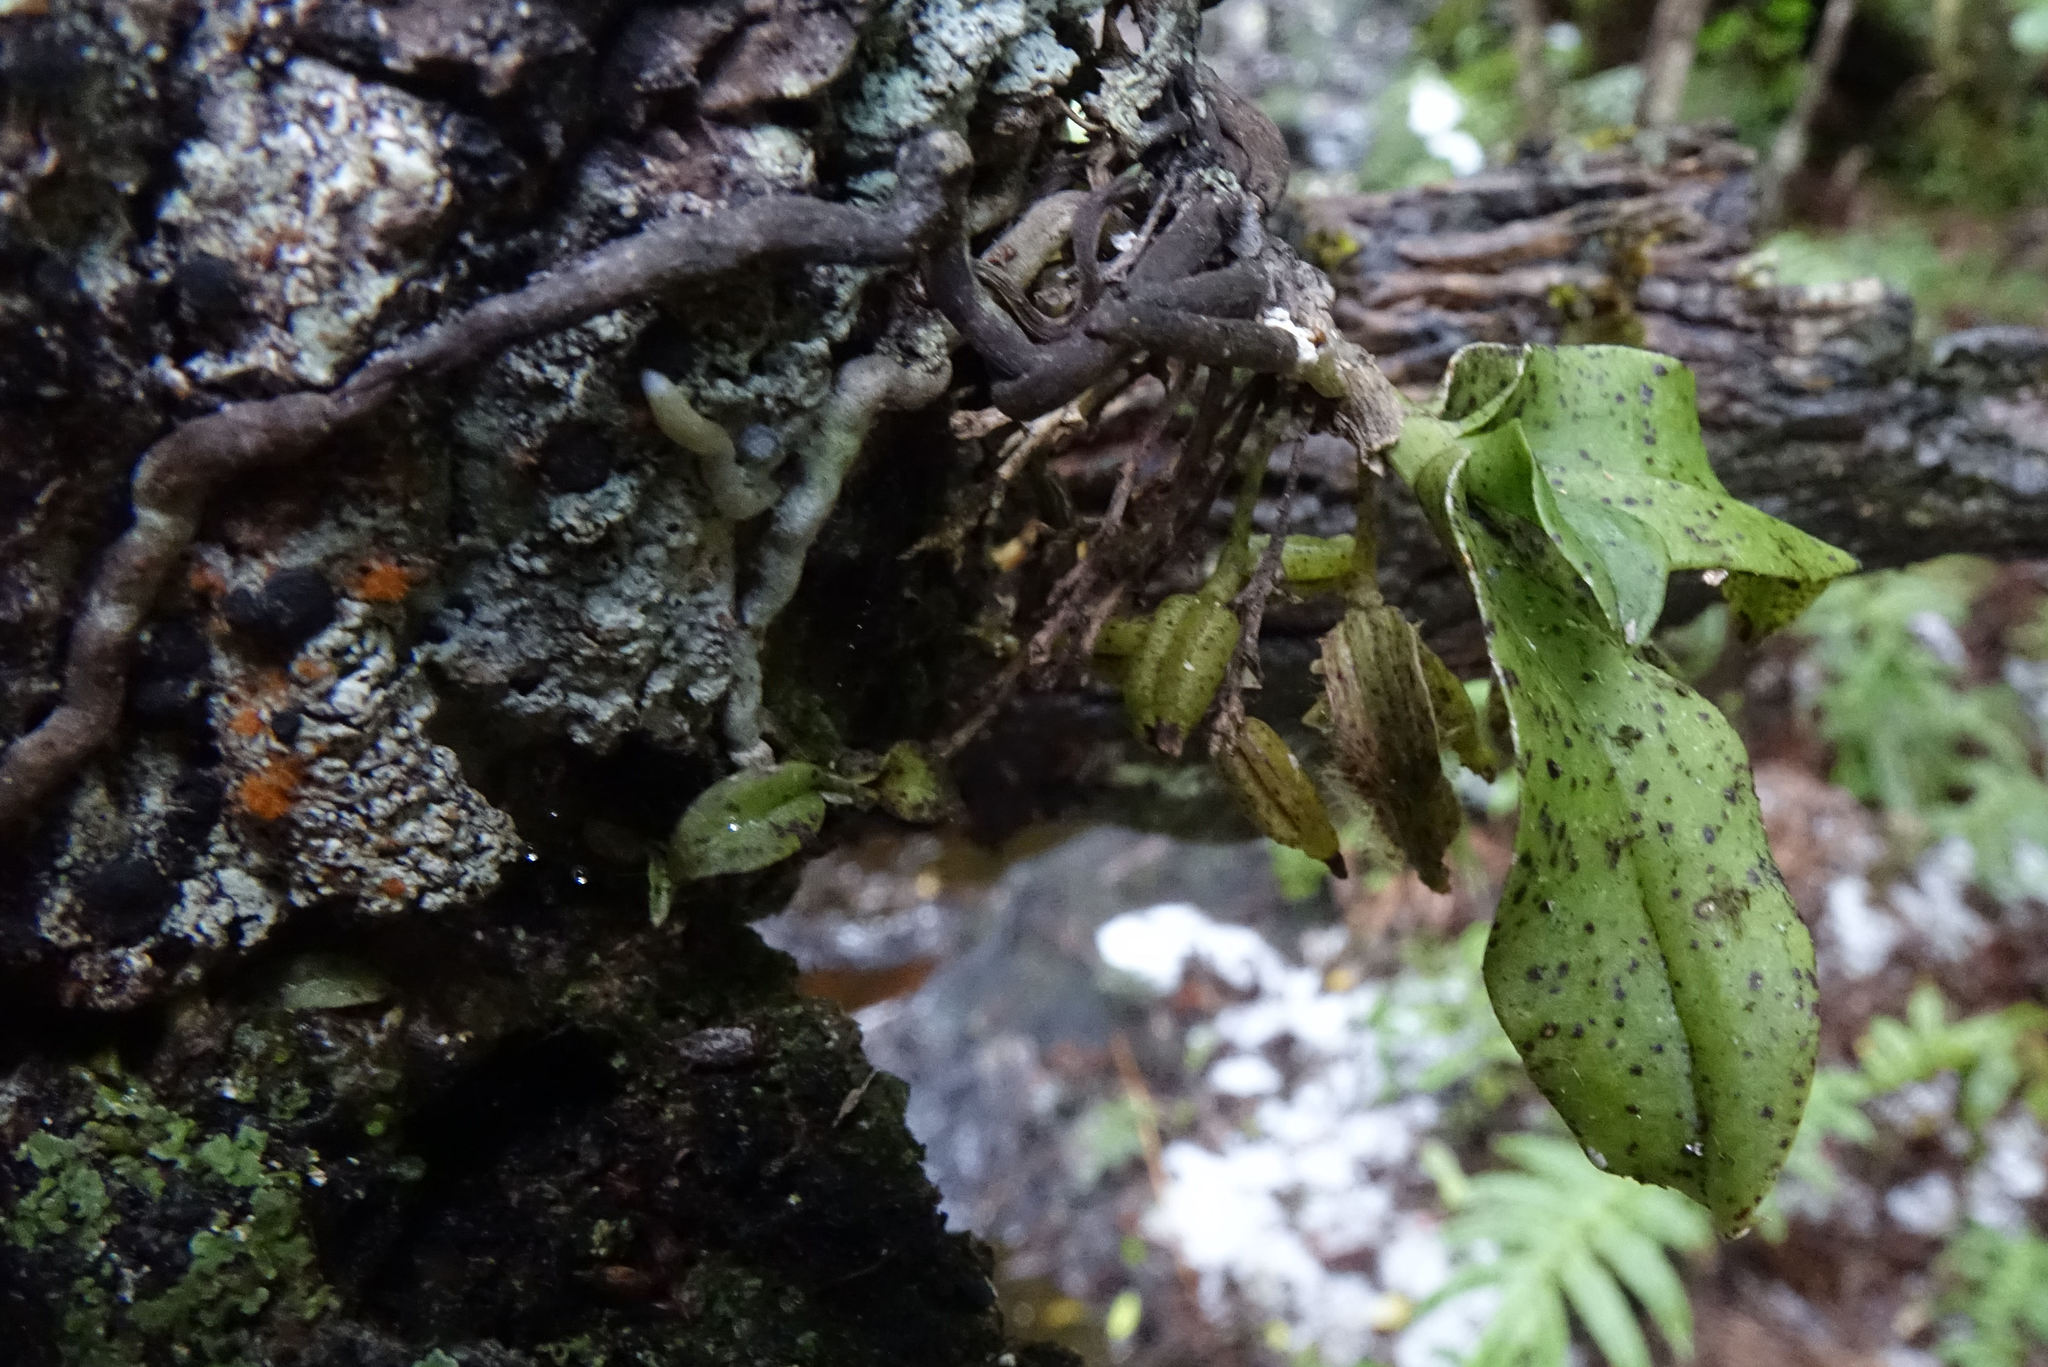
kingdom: Plantae
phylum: Tracheophyta
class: Liliopsida
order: Asparagales
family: Orchidaceae
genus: Drymoanthus
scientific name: Drymoanthus flavus
